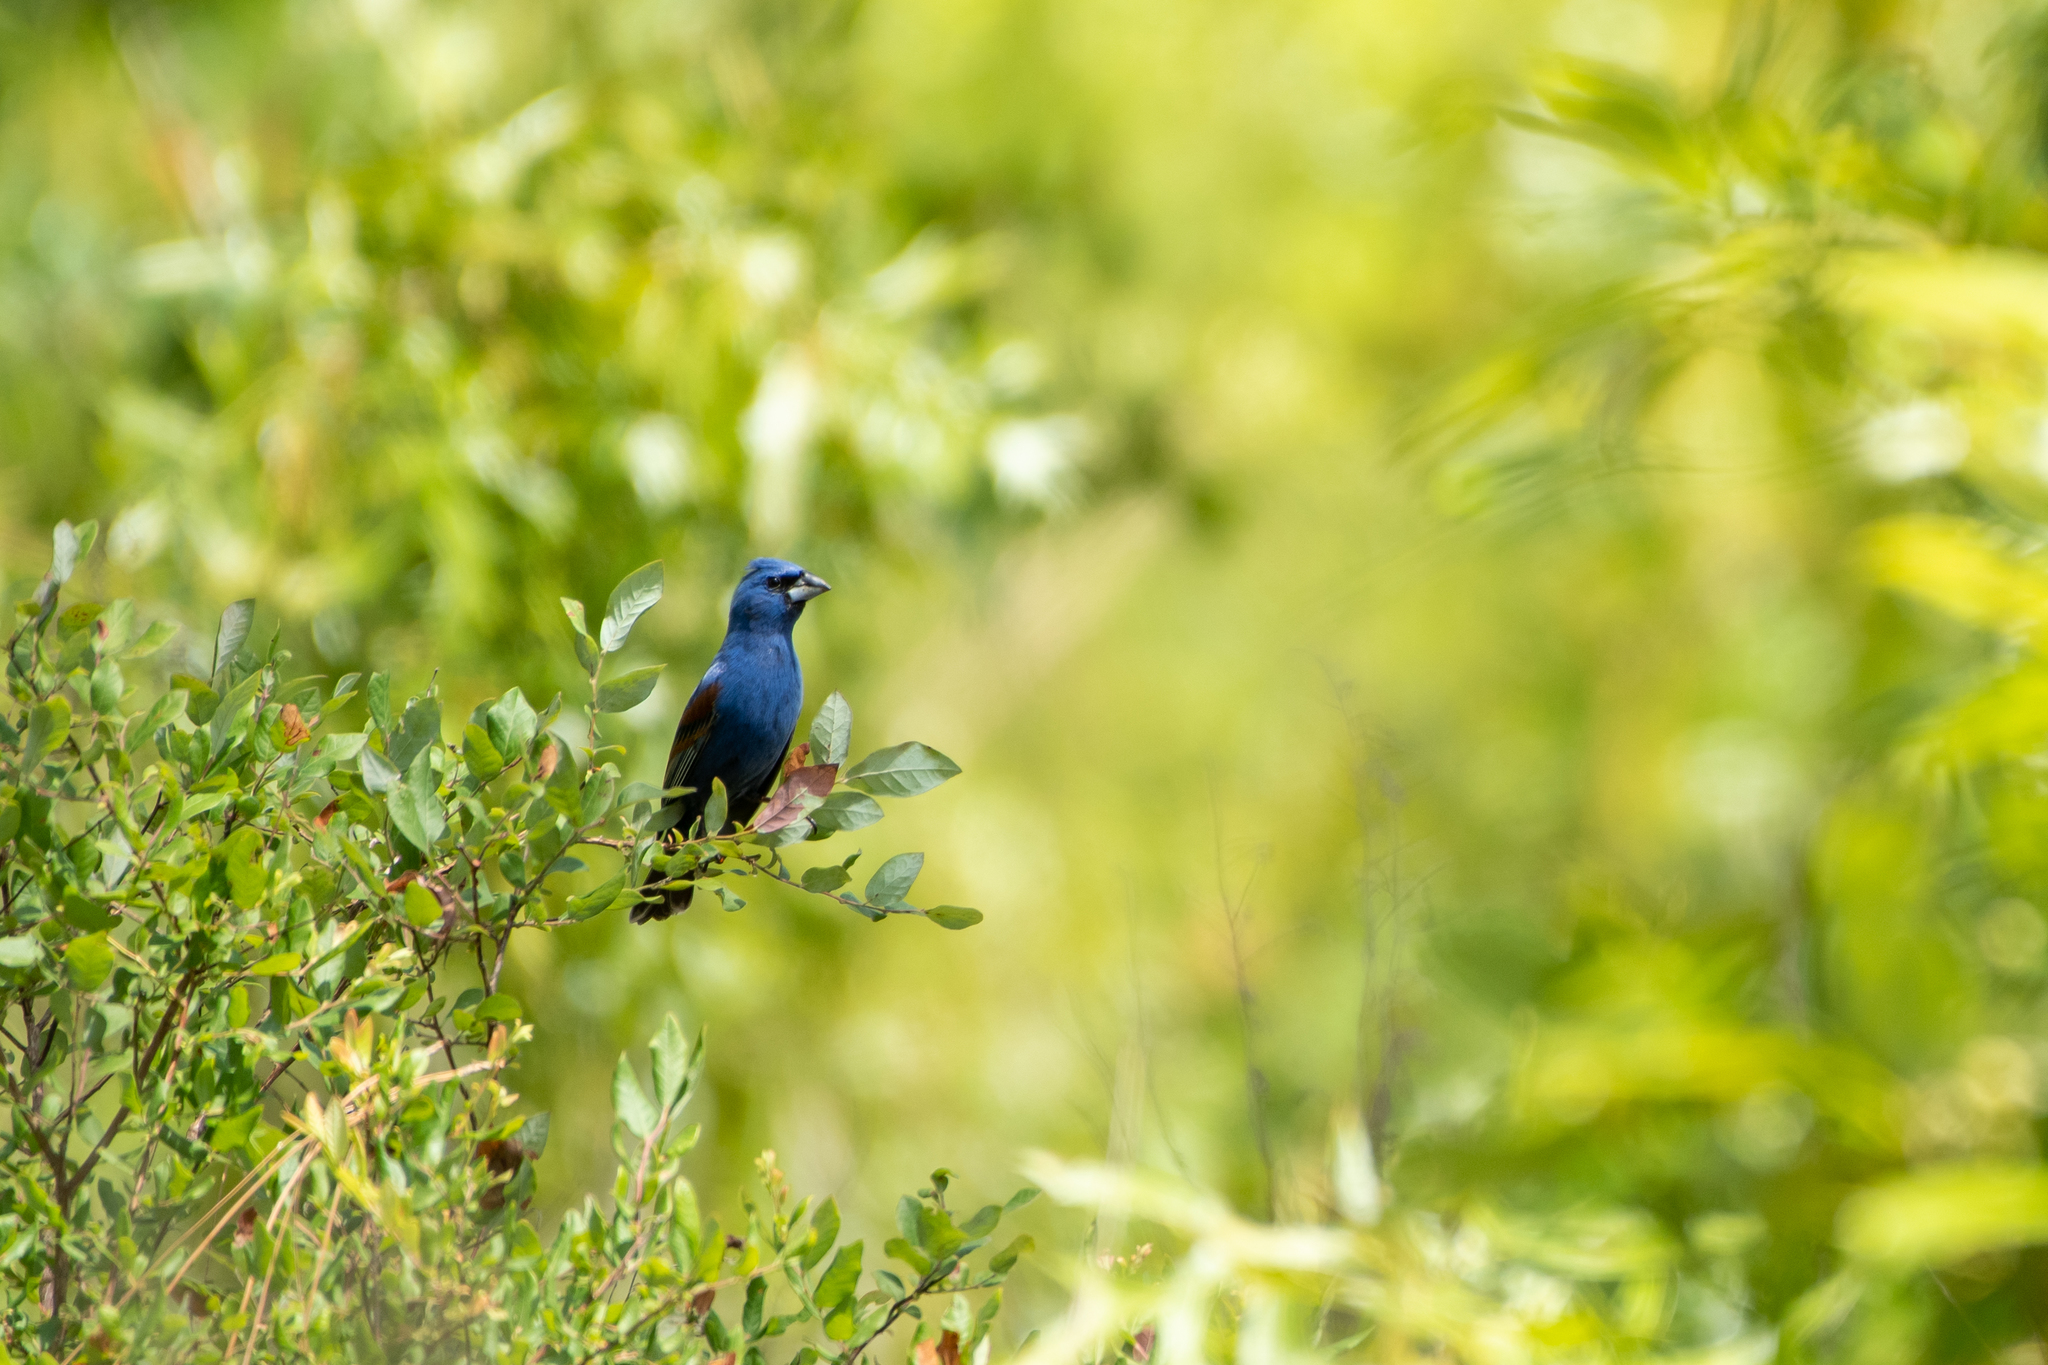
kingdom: Animalia
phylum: Chordata
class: Aves
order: Passeriformes
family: Cardinalidae
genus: Passerina
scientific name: Passerina caerulea
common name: Blue grosbeak
